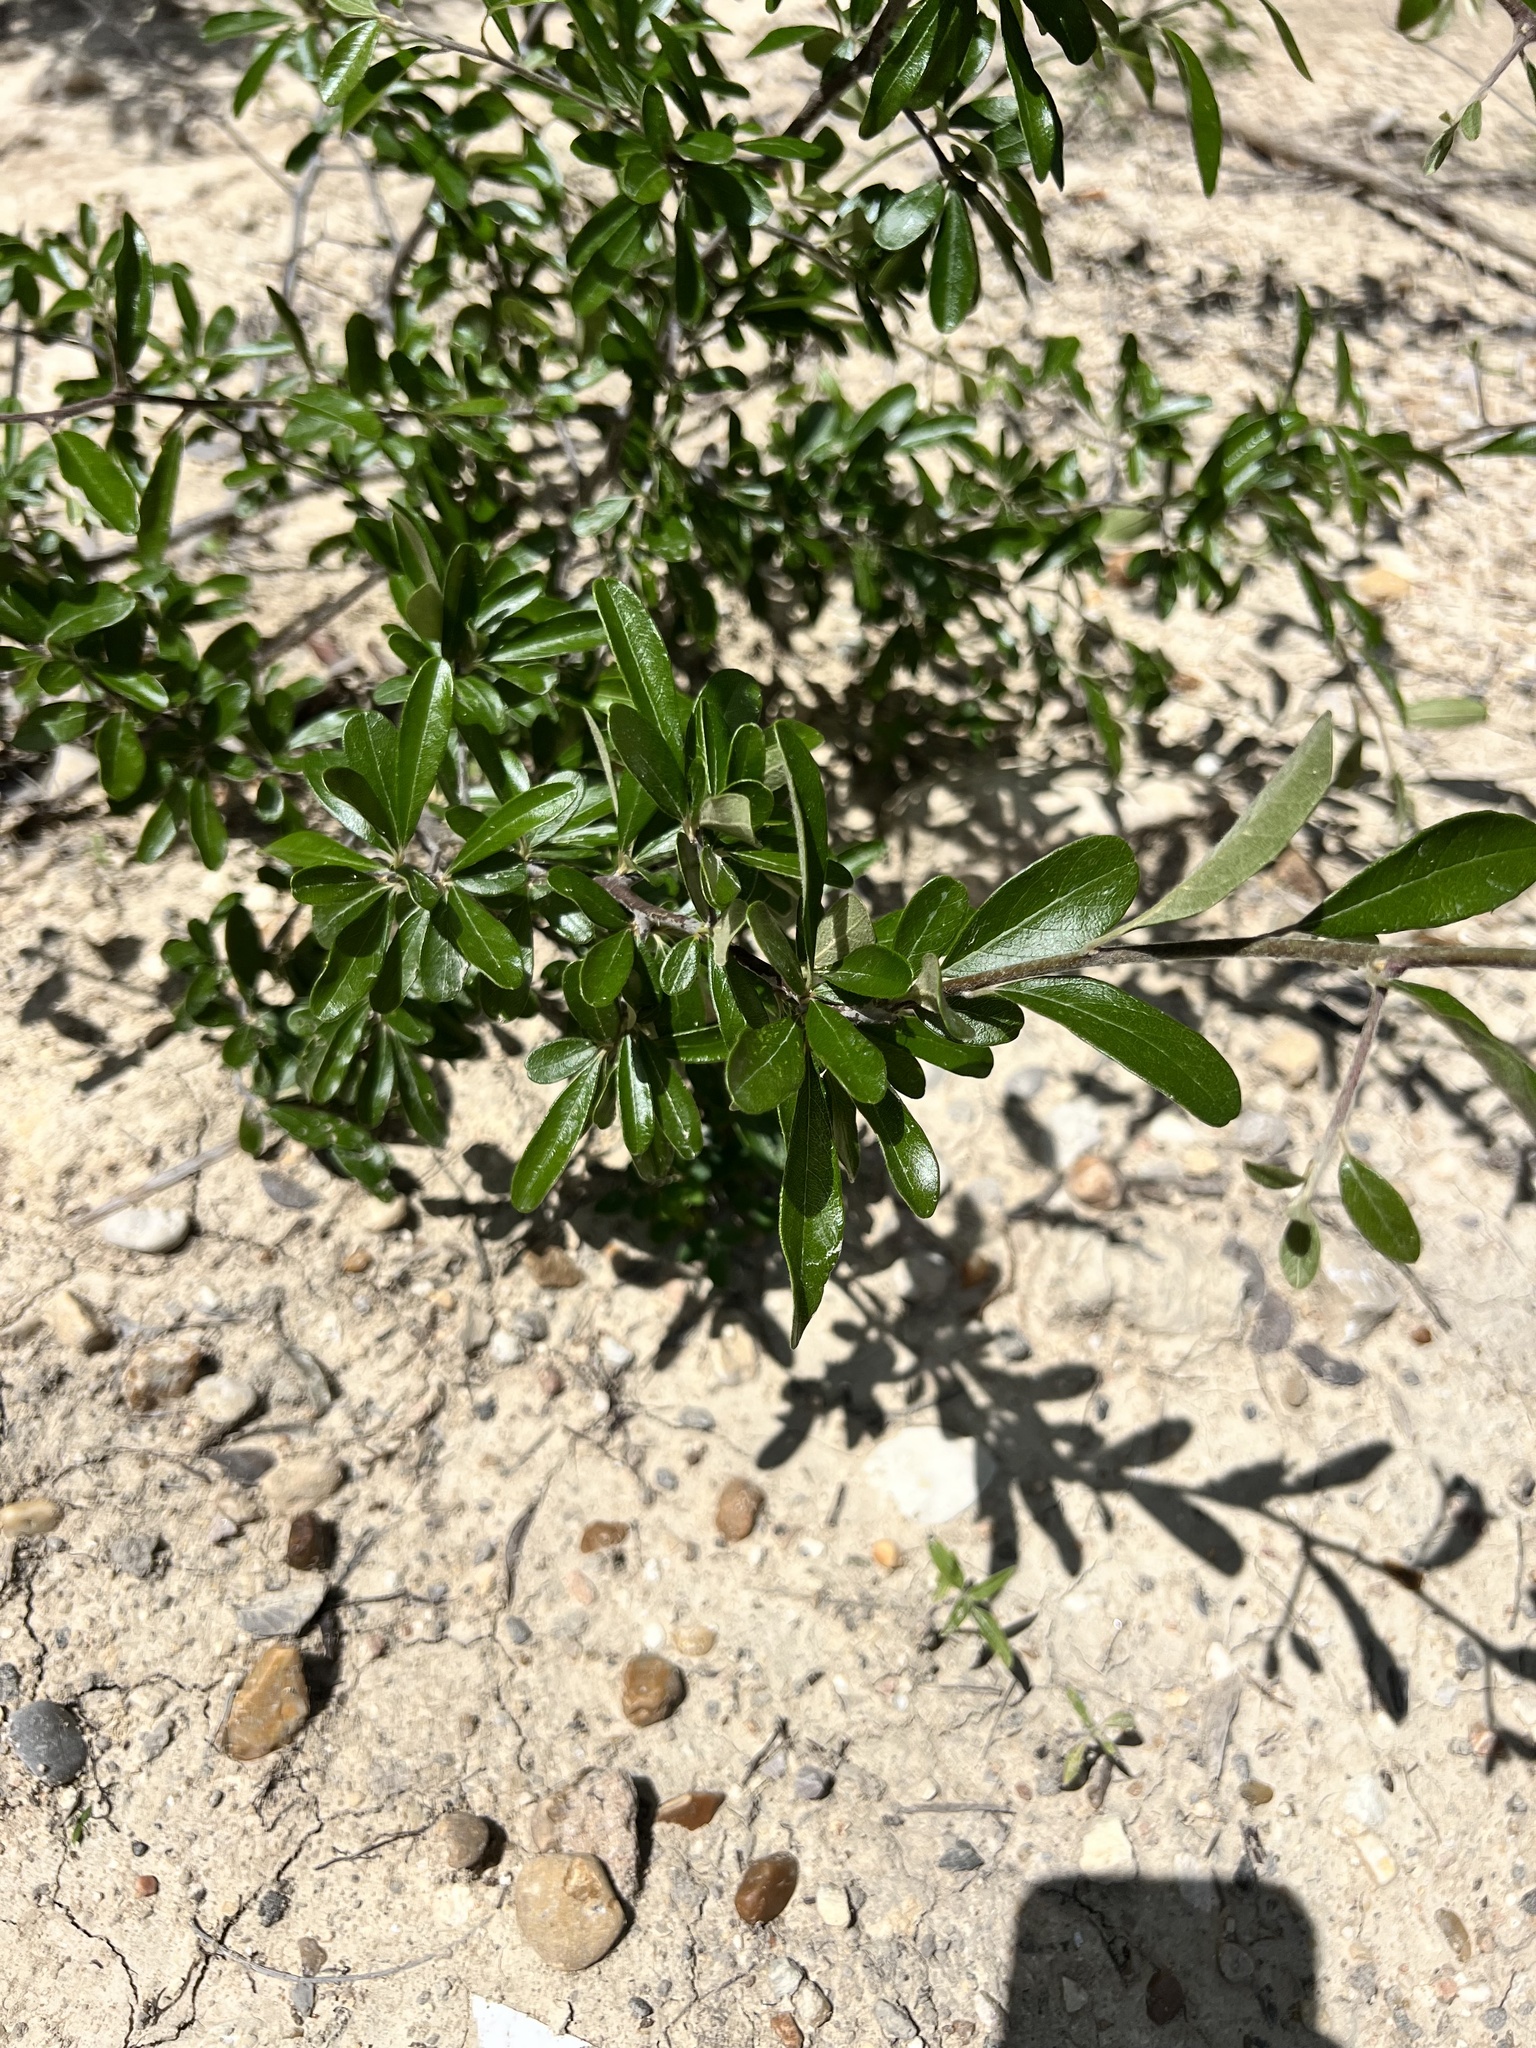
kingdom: Plantae
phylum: Tracheophyta
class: Magnoliopsida
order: Ericales
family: Sapotaceae
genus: Sideroxylon
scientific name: Sideroxylon lanuginosum
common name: Chittamwood
